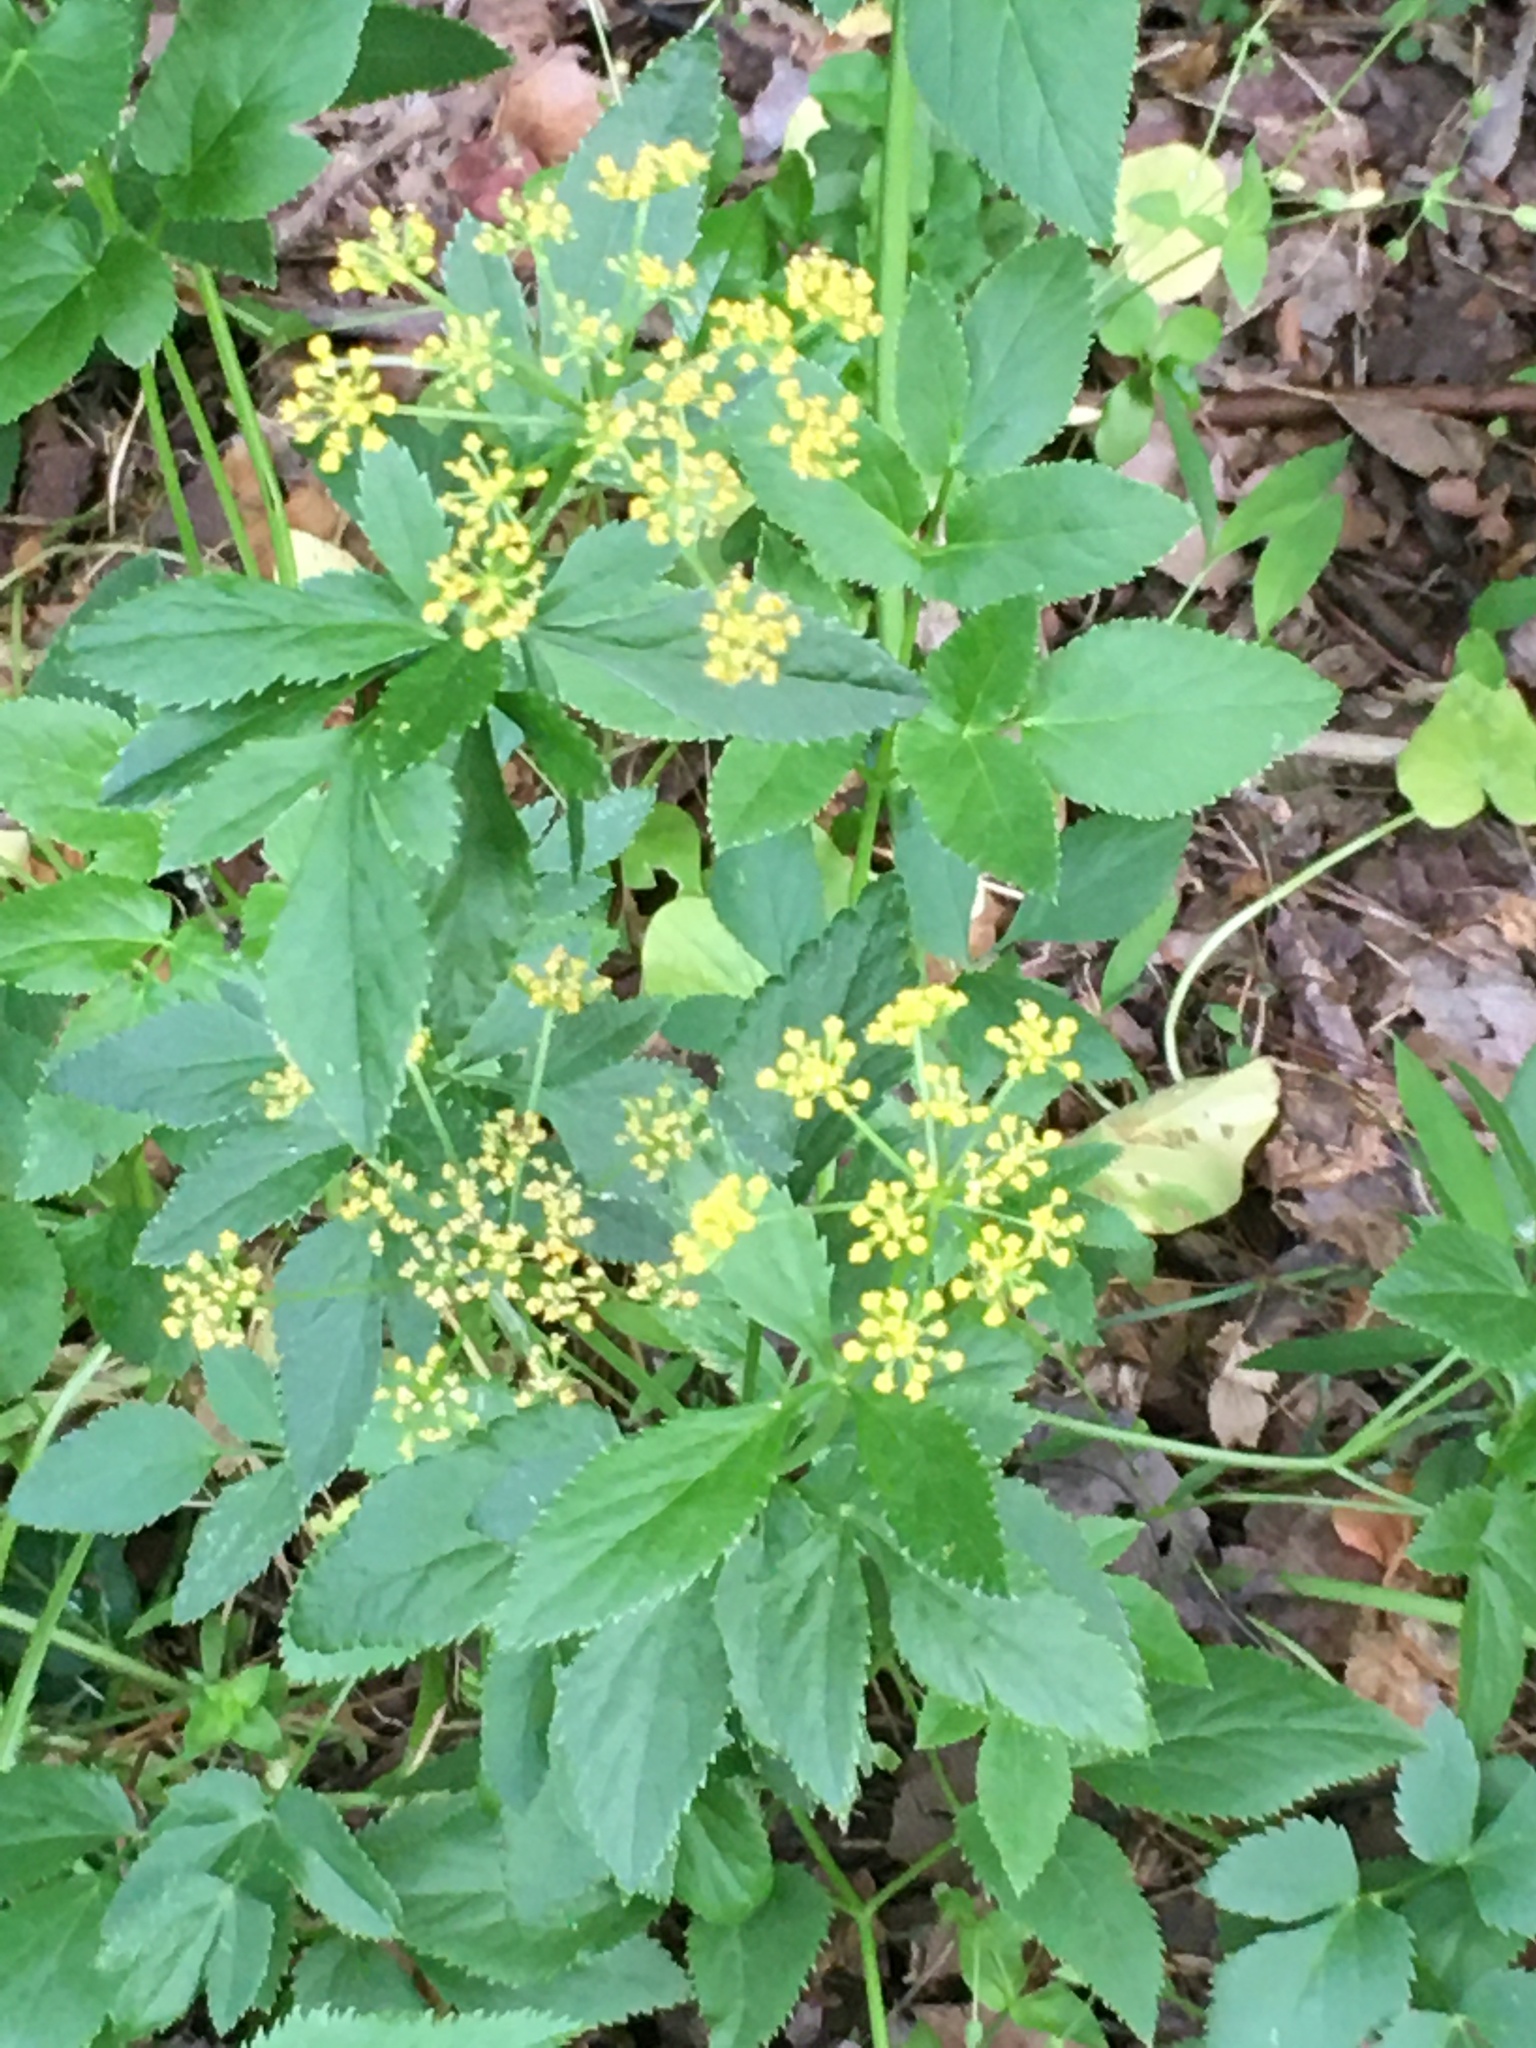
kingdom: Plantae
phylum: Tracheophyta
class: Magnoliopsida
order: Apiales
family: Apiaceae
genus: Zizia
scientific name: Zizia aurea
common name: Golden alexanders
